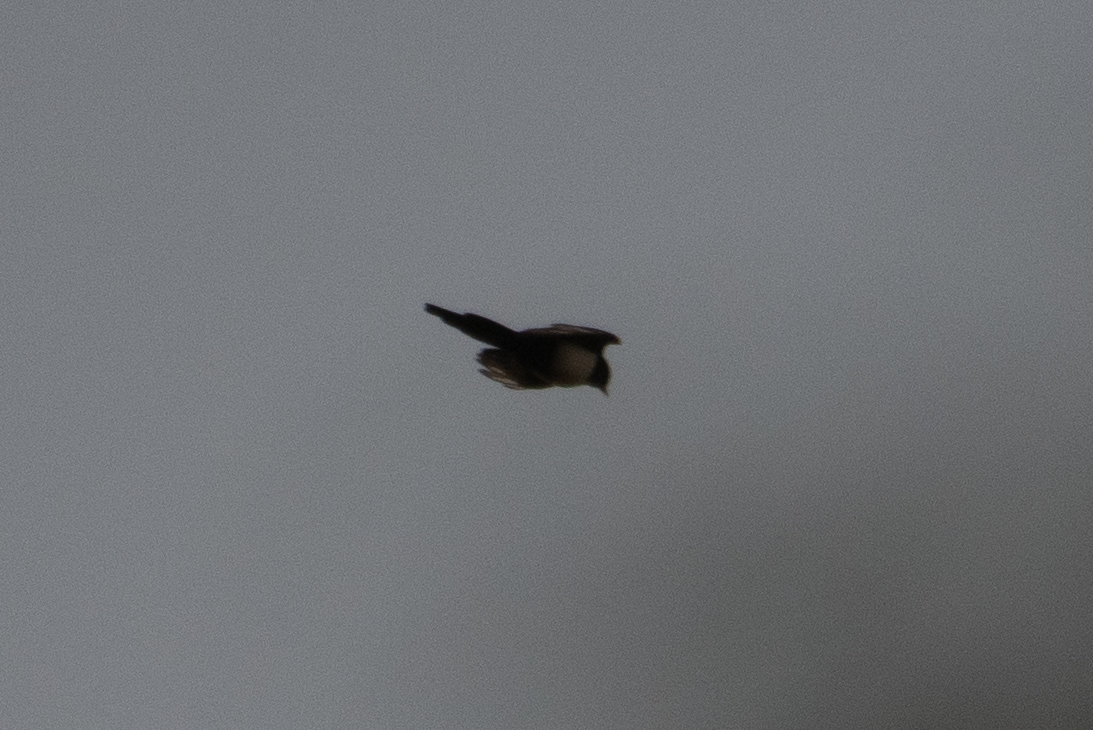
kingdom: Animalia
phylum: Chordata
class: Aves
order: Passeriformes
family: Corvidae
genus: Pica
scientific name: Pica nuttalli
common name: Yellow-billed magpie
